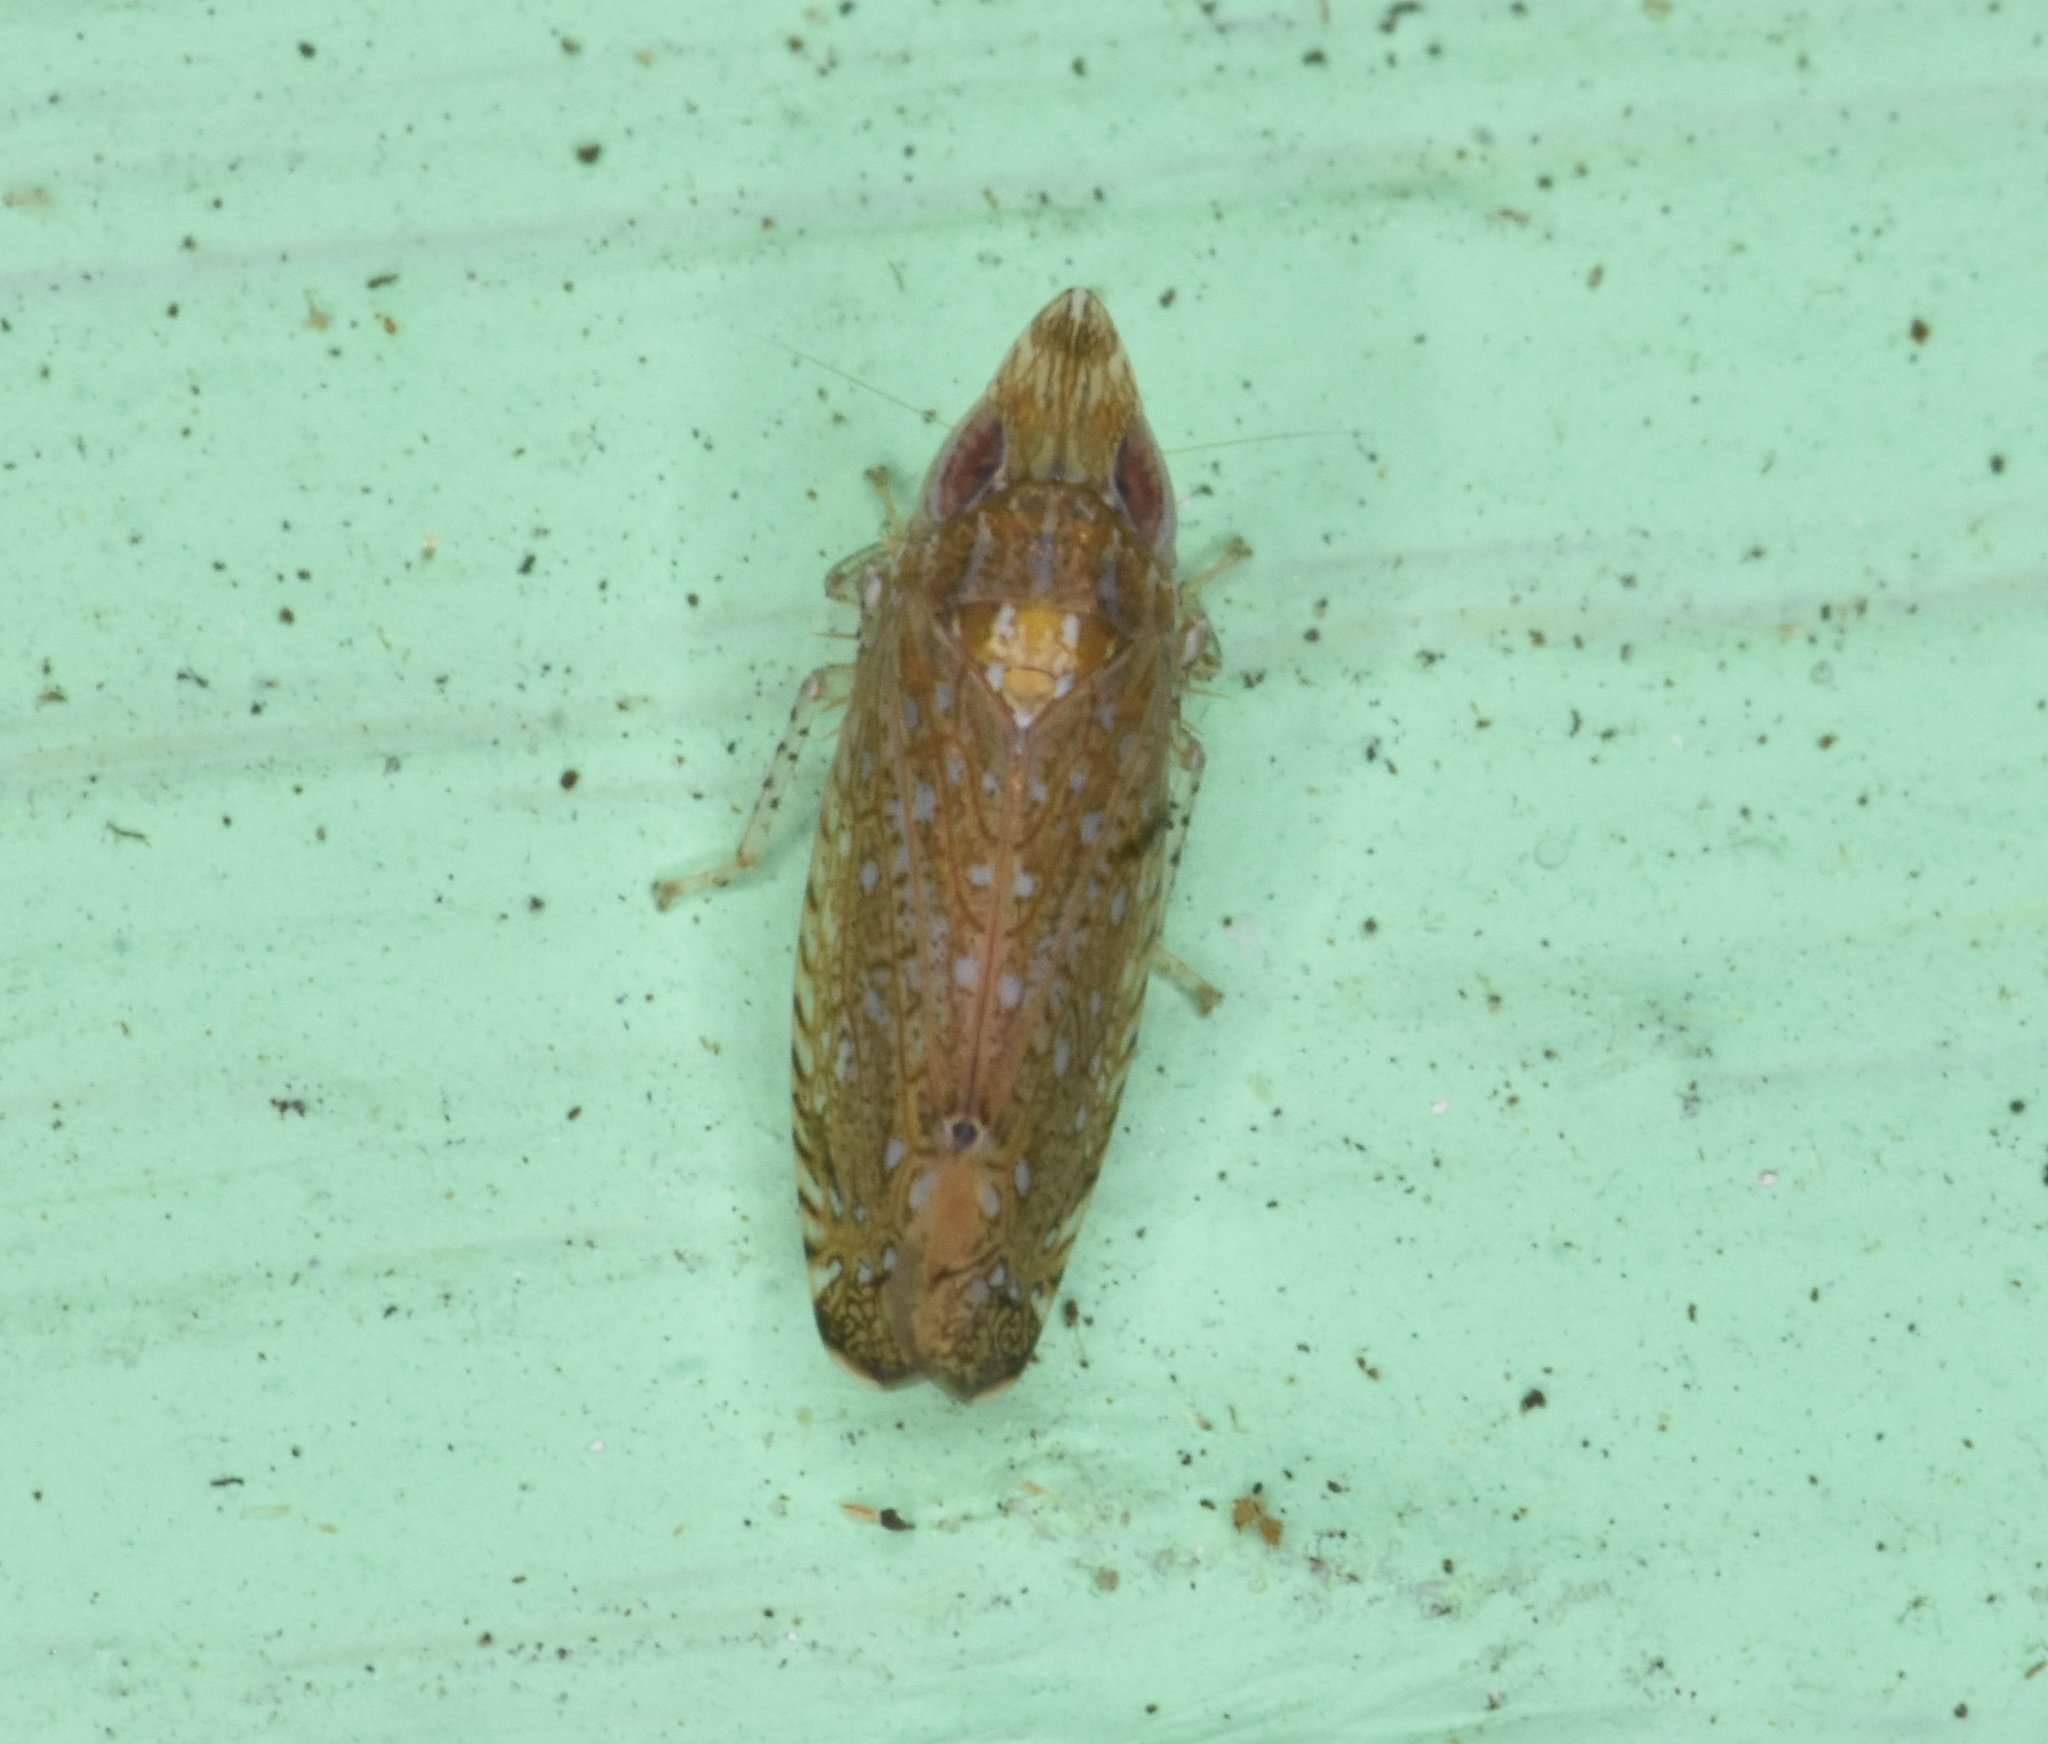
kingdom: Animalia
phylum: Arthropoda
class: Insecta
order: Hemiptera
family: Cicadellidae
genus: Scaphytopius
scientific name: Scaphytopius acutus
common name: The sharp-nosed leafhopper
